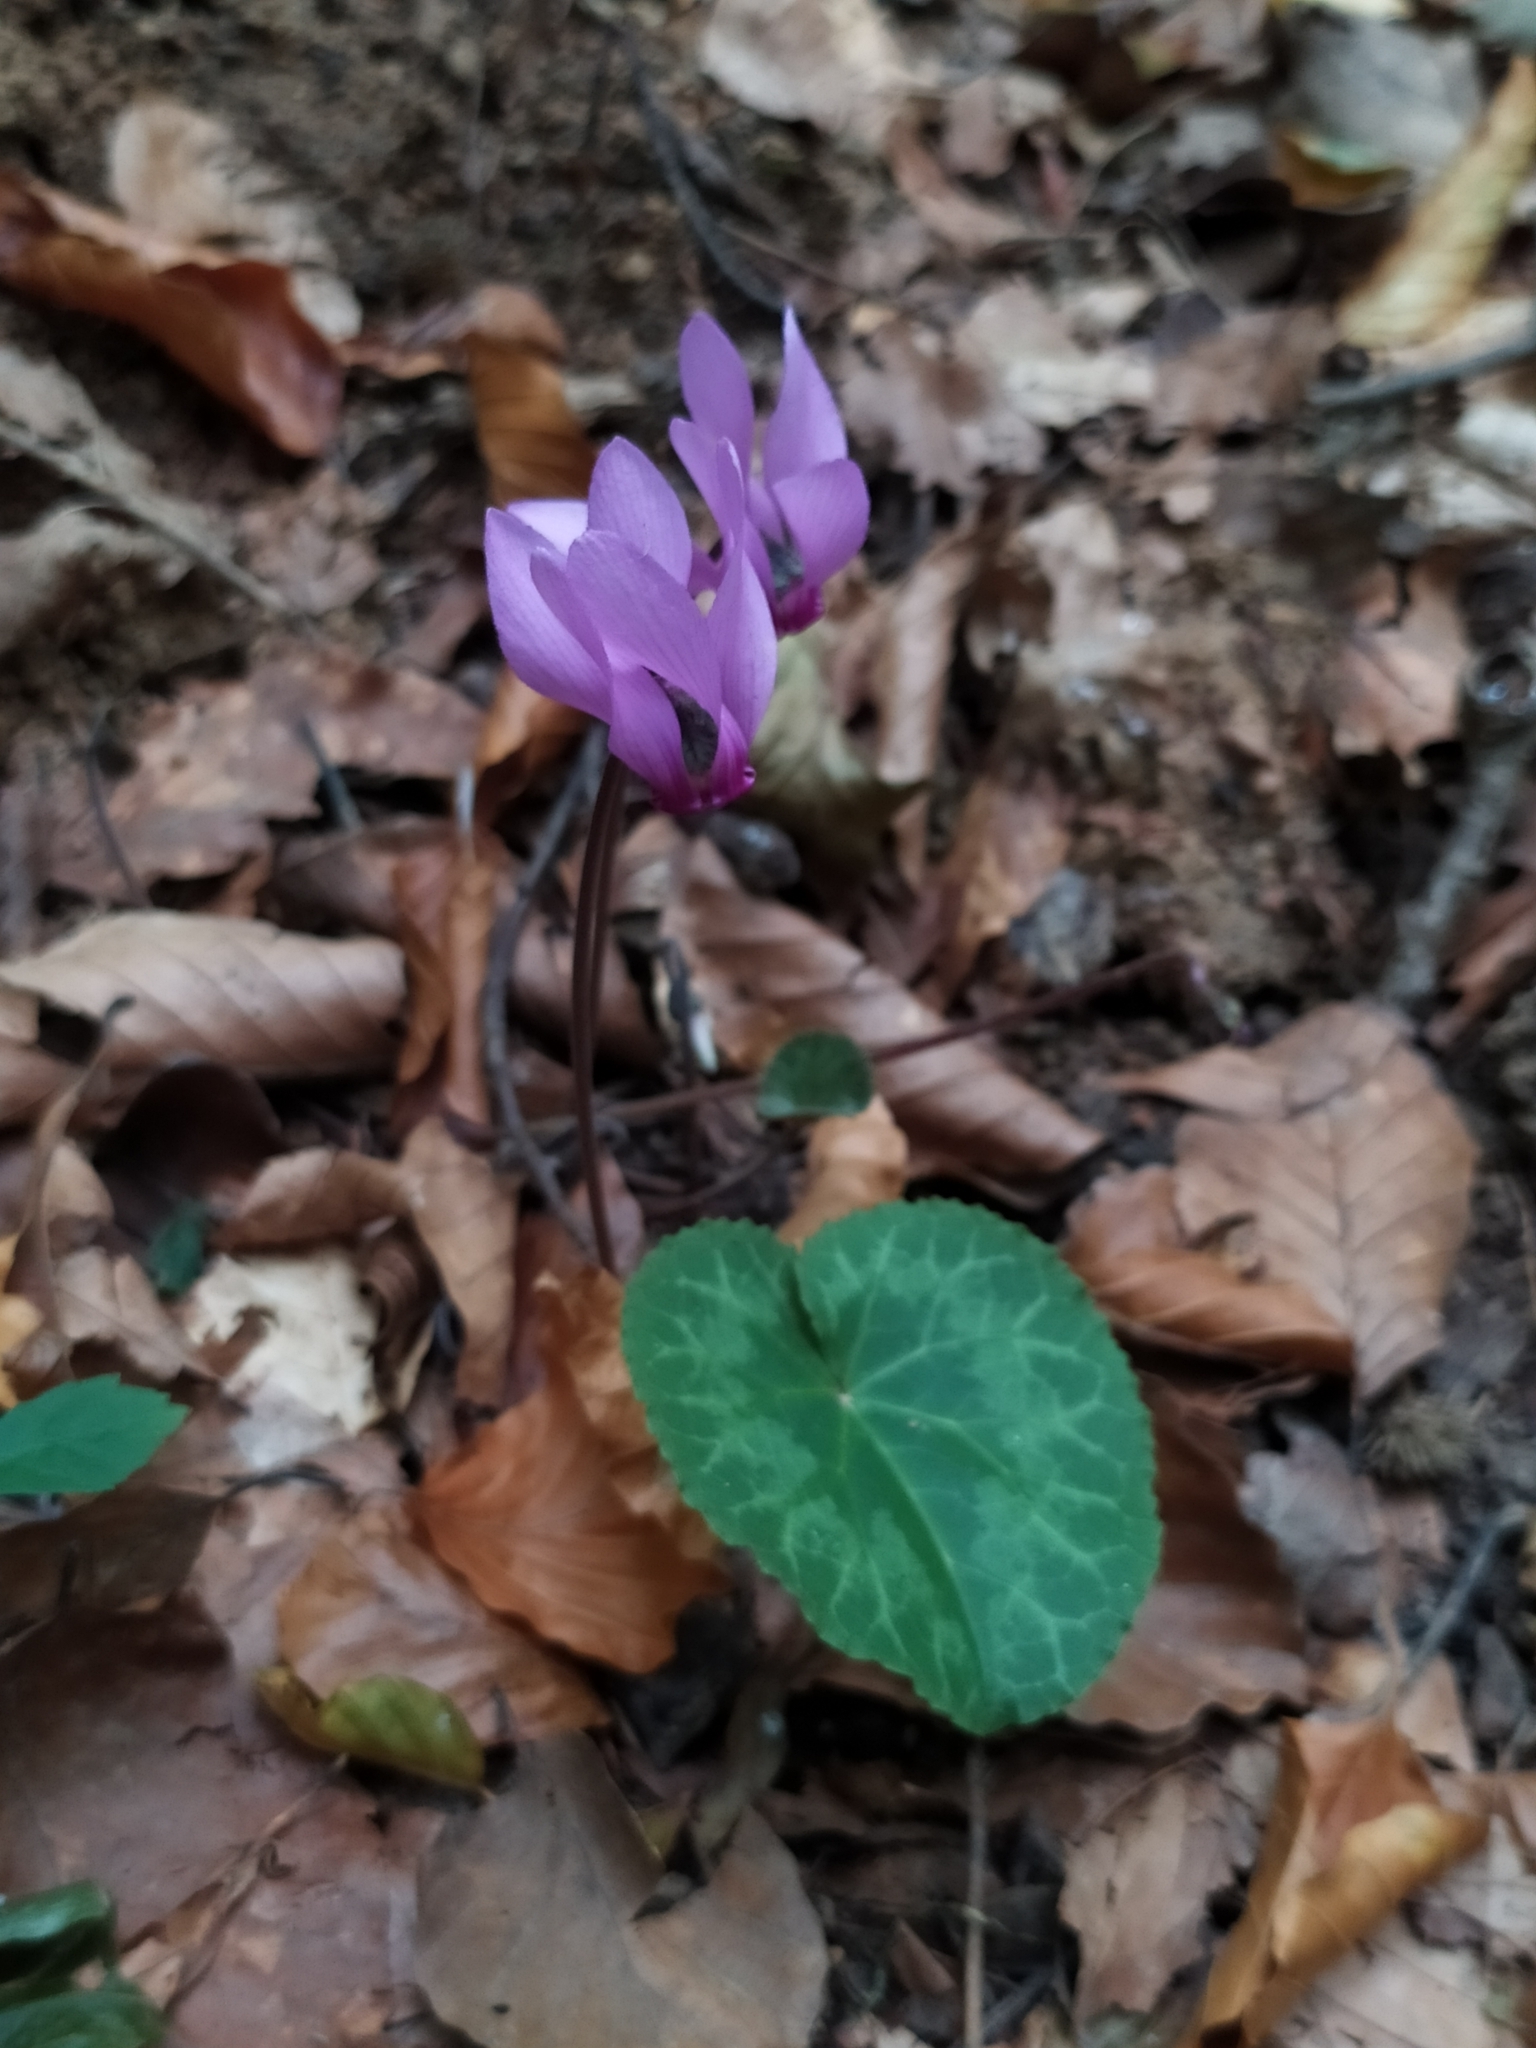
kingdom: Plantae
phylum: Tracheophyta
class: Magnoliopsida
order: Ericales
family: Primulaceae
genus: Cyclamen
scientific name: Cyclamen purpurascens
